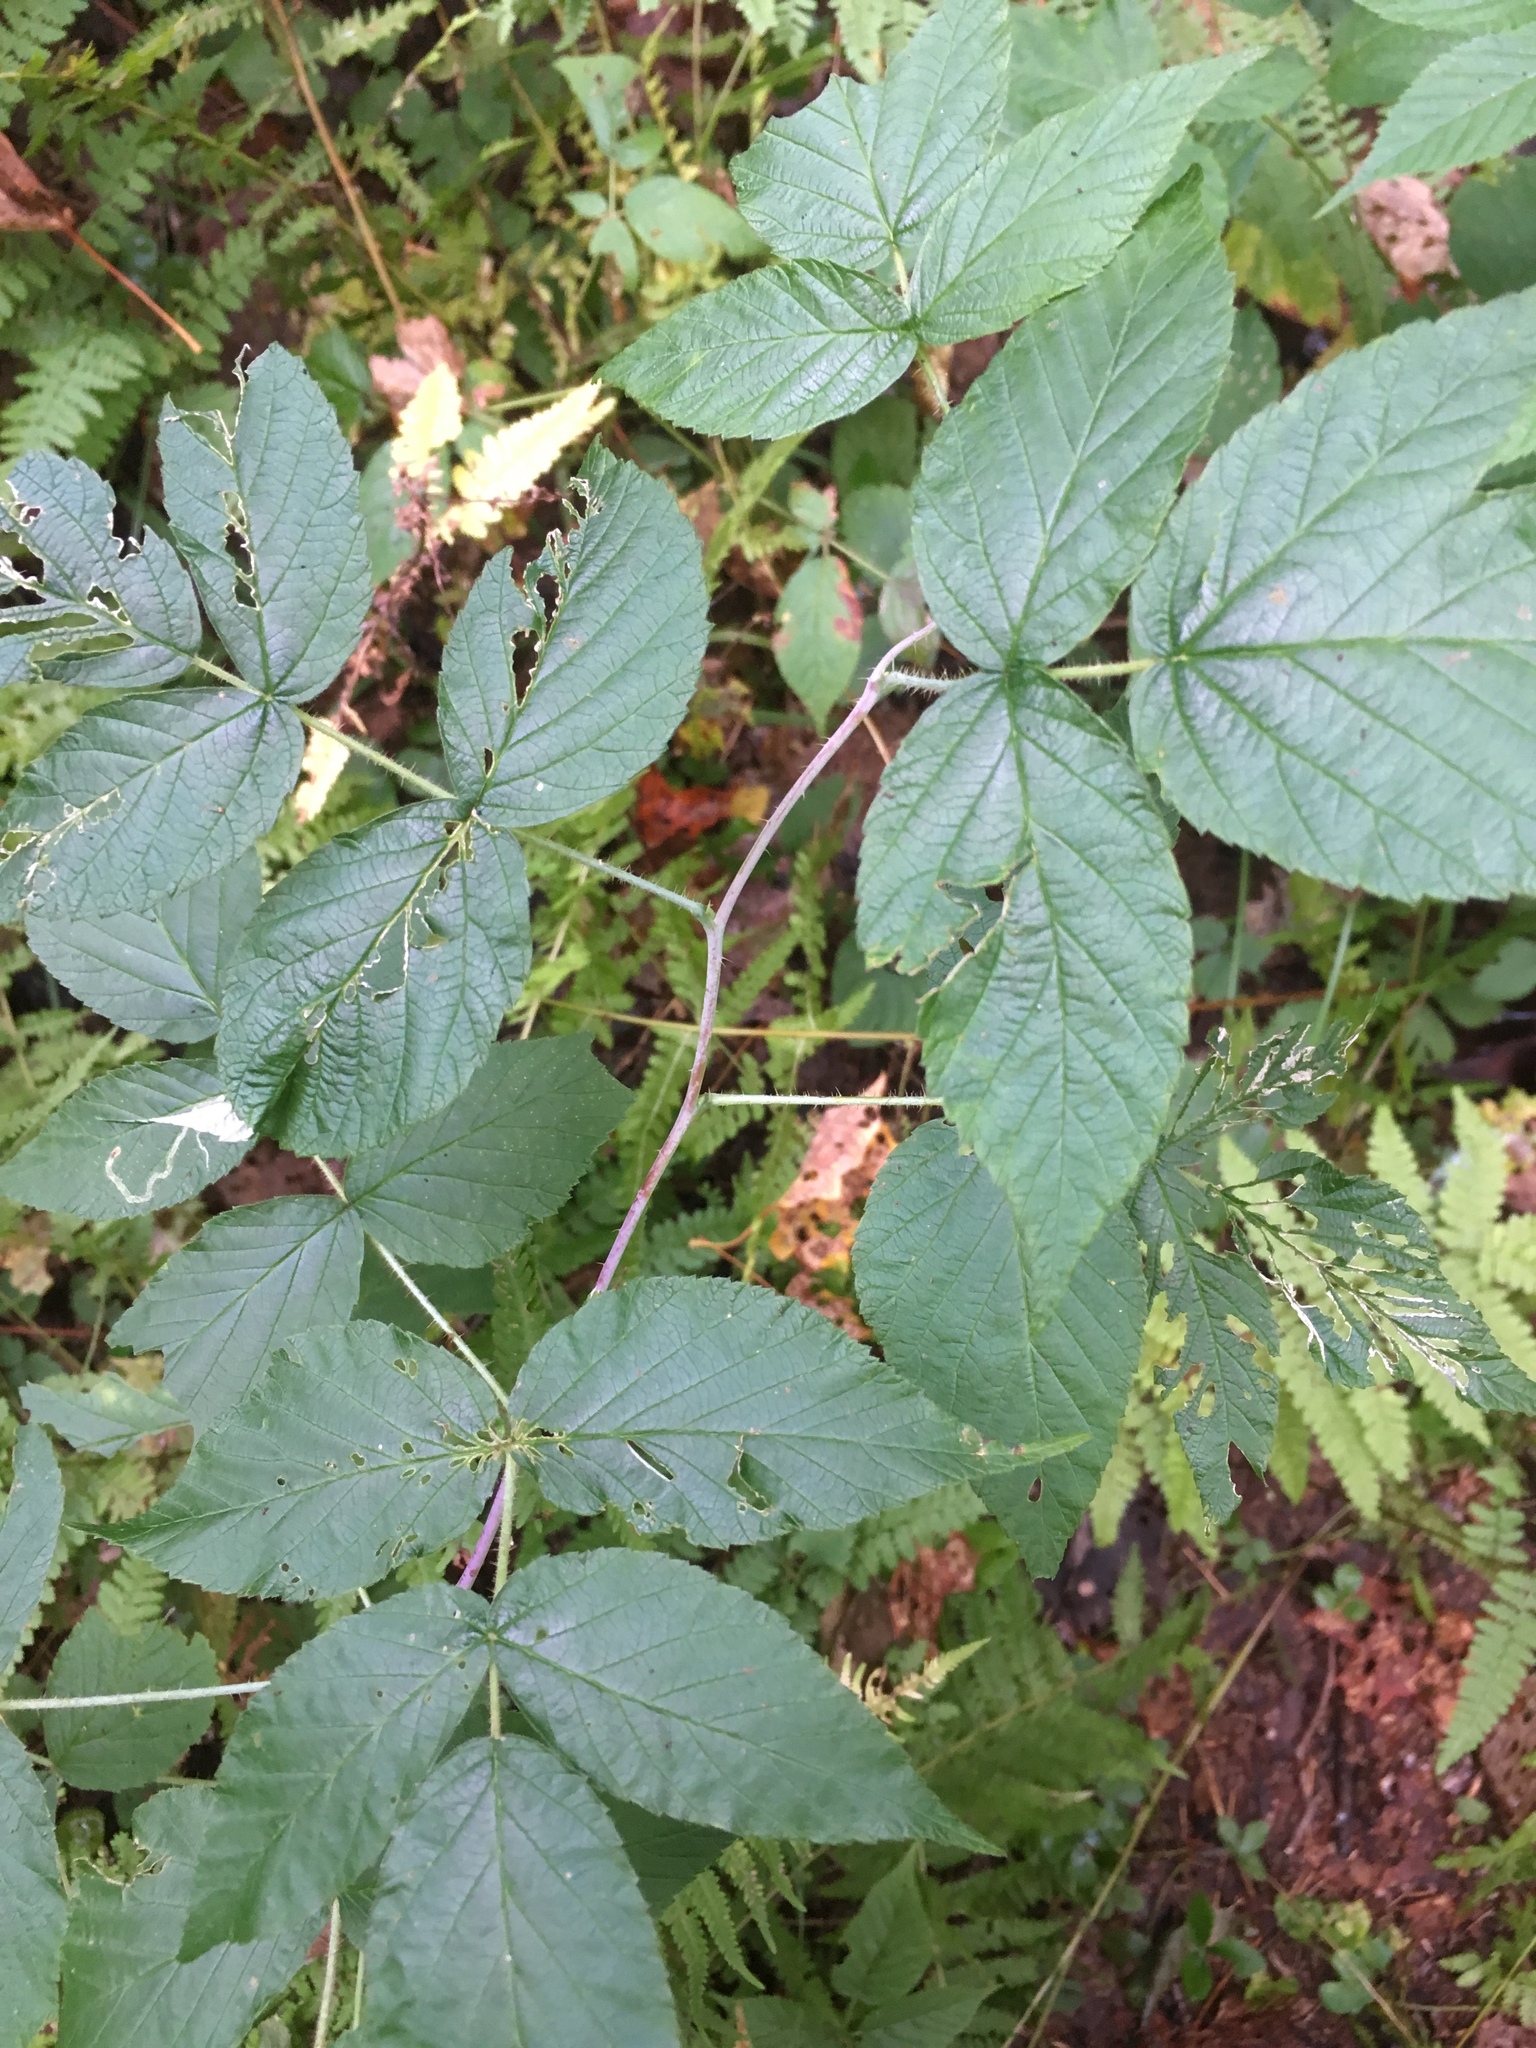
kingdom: Plantae
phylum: Tracheophyta
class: Magnoliopsida
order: Rosales
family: Rosaceae
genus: Rubus
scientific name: Rubus occidentalis
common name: Black raspberry
